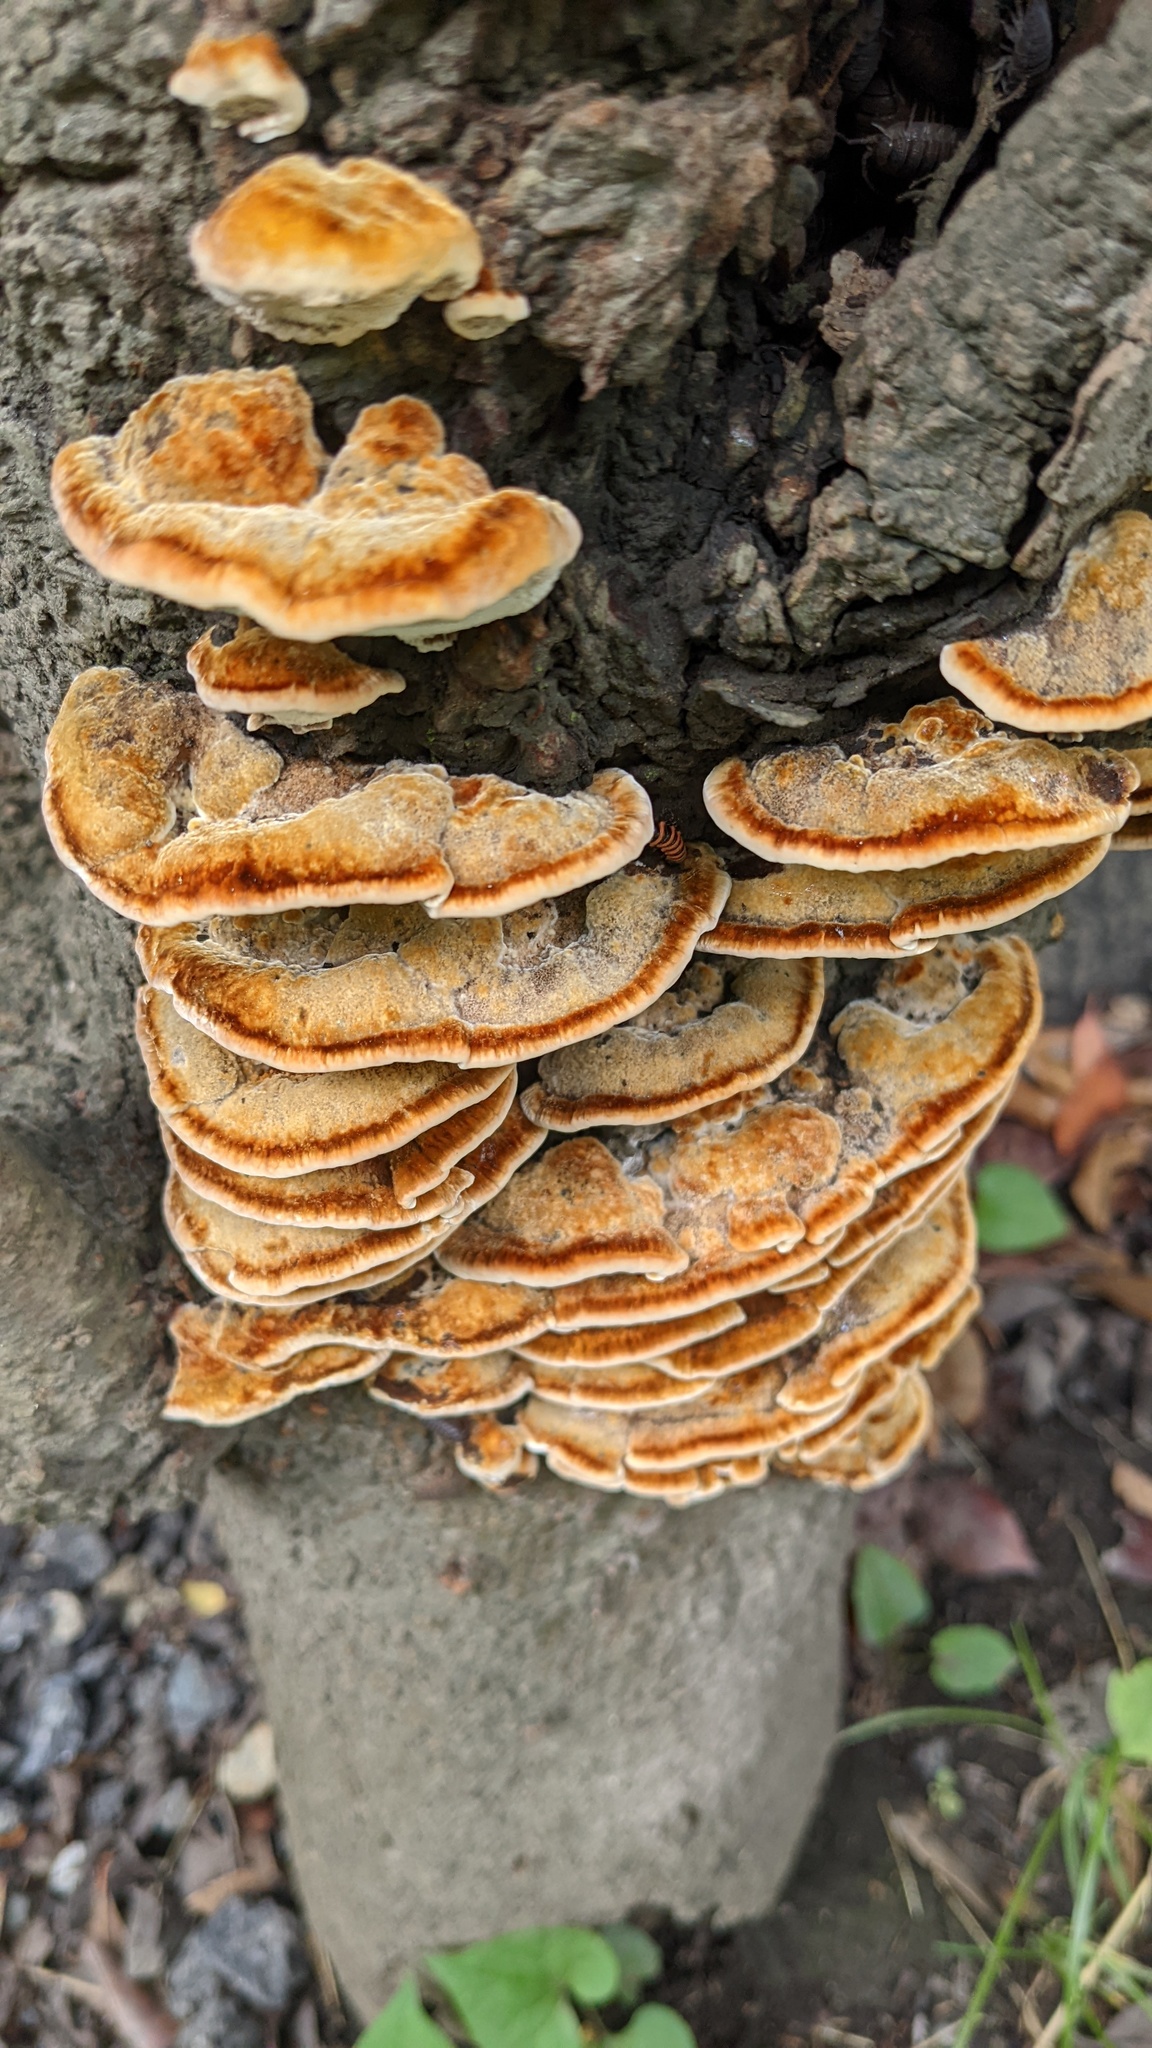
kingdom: Fungi
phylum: Basidiomycota
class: Agaricomycetes
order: Hymenochaetales
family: Hymenochaetaceae
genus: Inocutis
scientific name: Inocutis mikadoi
